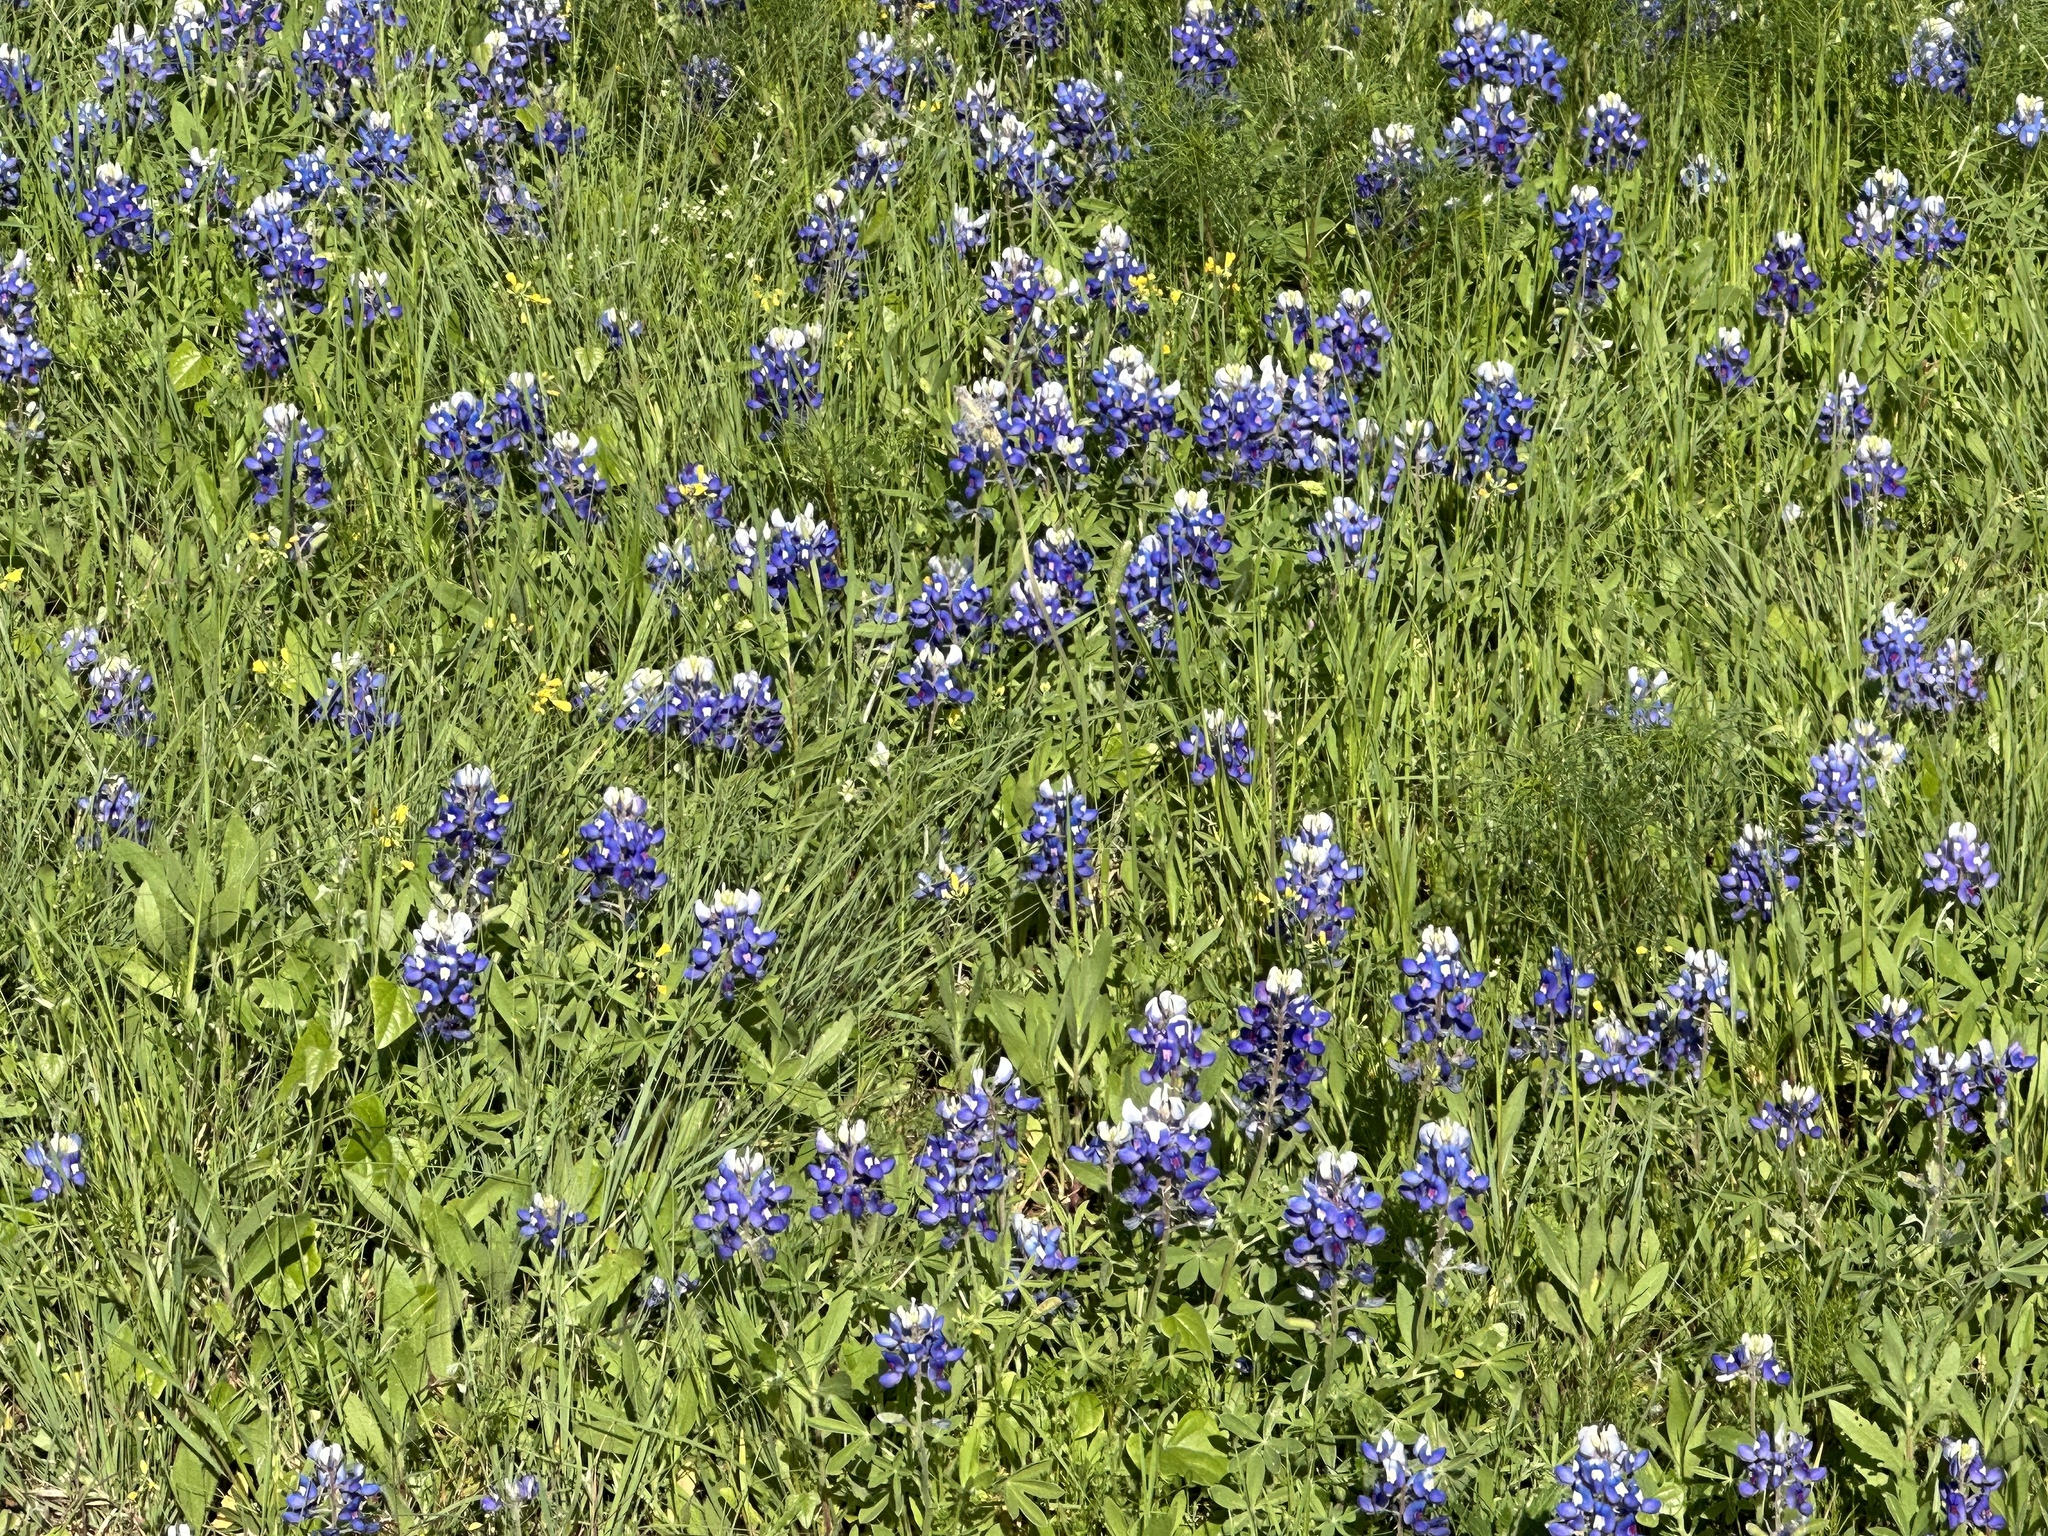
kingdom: Plantae
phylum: Tracheophyta
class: Magnoliopsida
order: Fabales
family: Fabaceae
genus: Lupinus
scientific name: Lupinus texensis
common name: Texas bluebonnet
